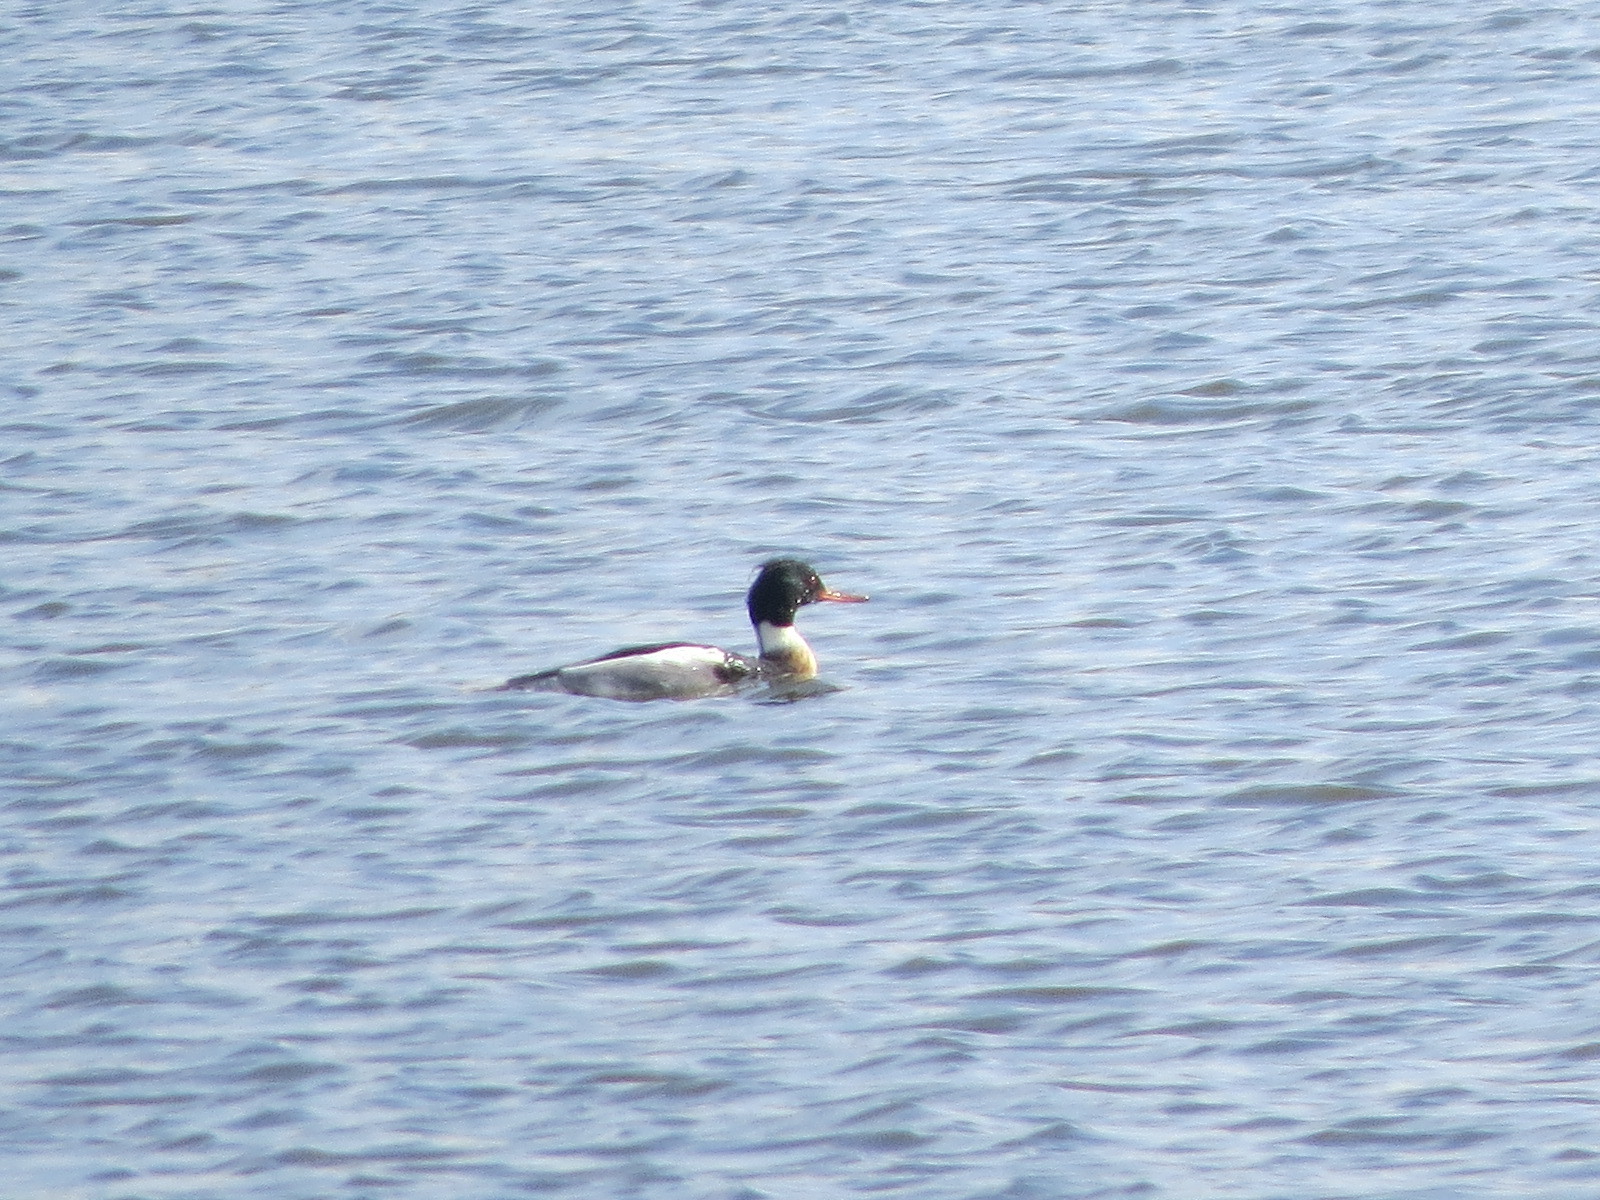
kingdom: Animalia
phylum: Chordata
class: Aves
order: Anseriformes
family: Anatidae
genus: Mergus
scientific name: Mergus serrator
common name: Red-breasted merganser
